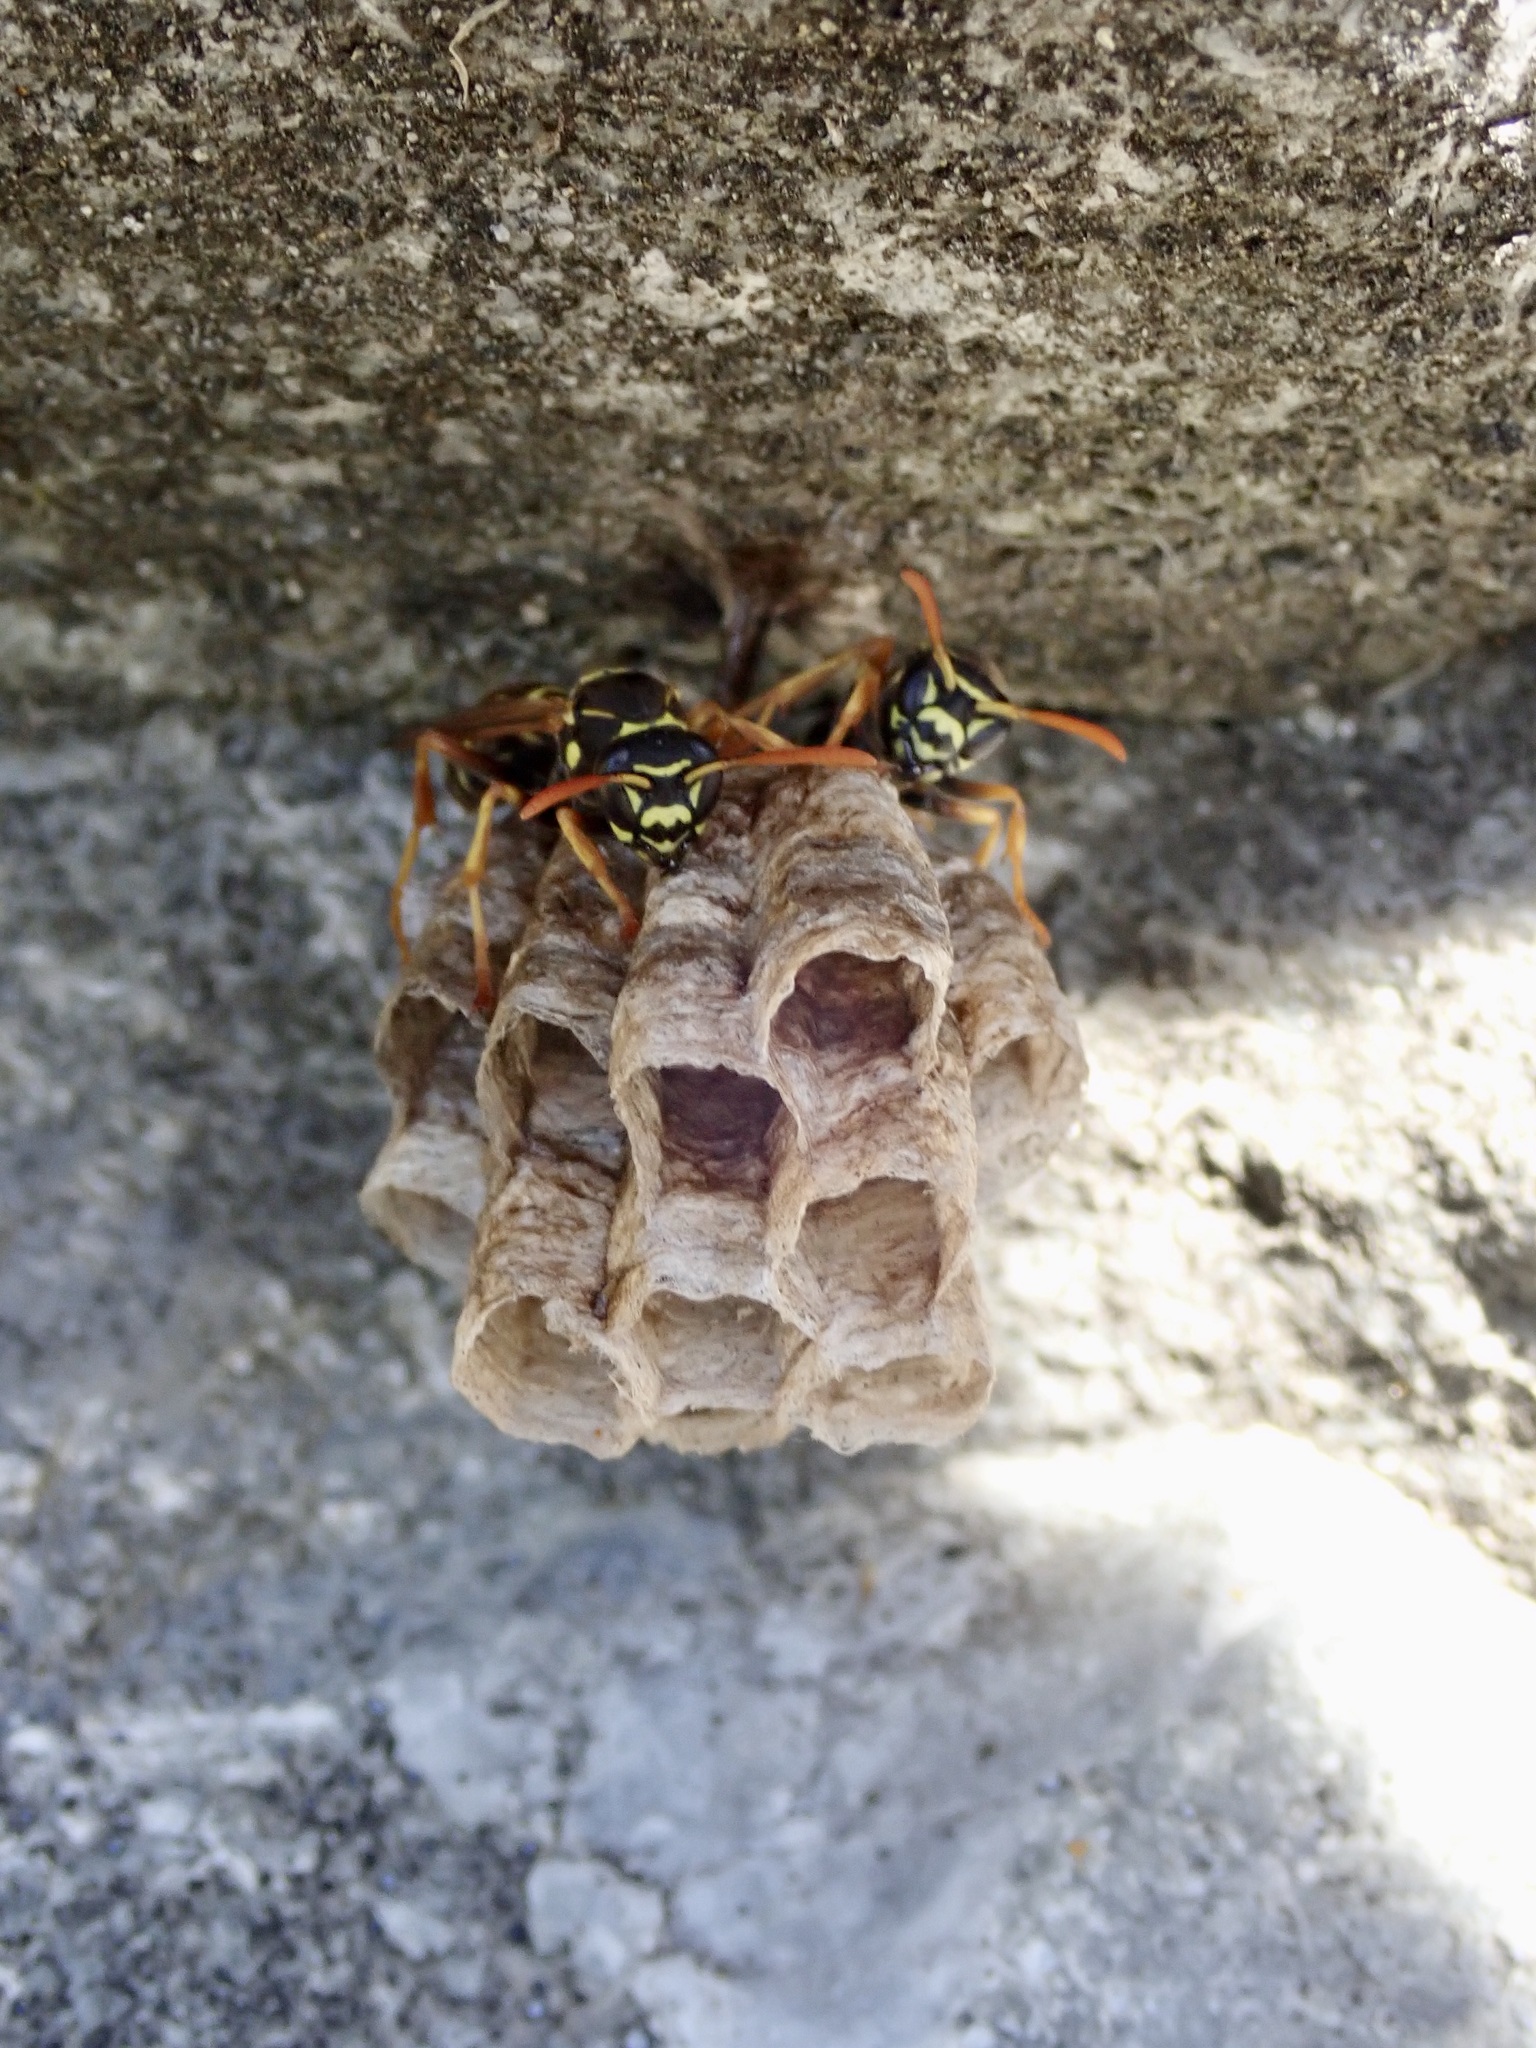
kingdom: Animalia
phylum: Arthropoda
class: Insecta
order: Hymenoptera
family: Eumenidae
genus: Polistes
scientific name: Polistes chinensis
